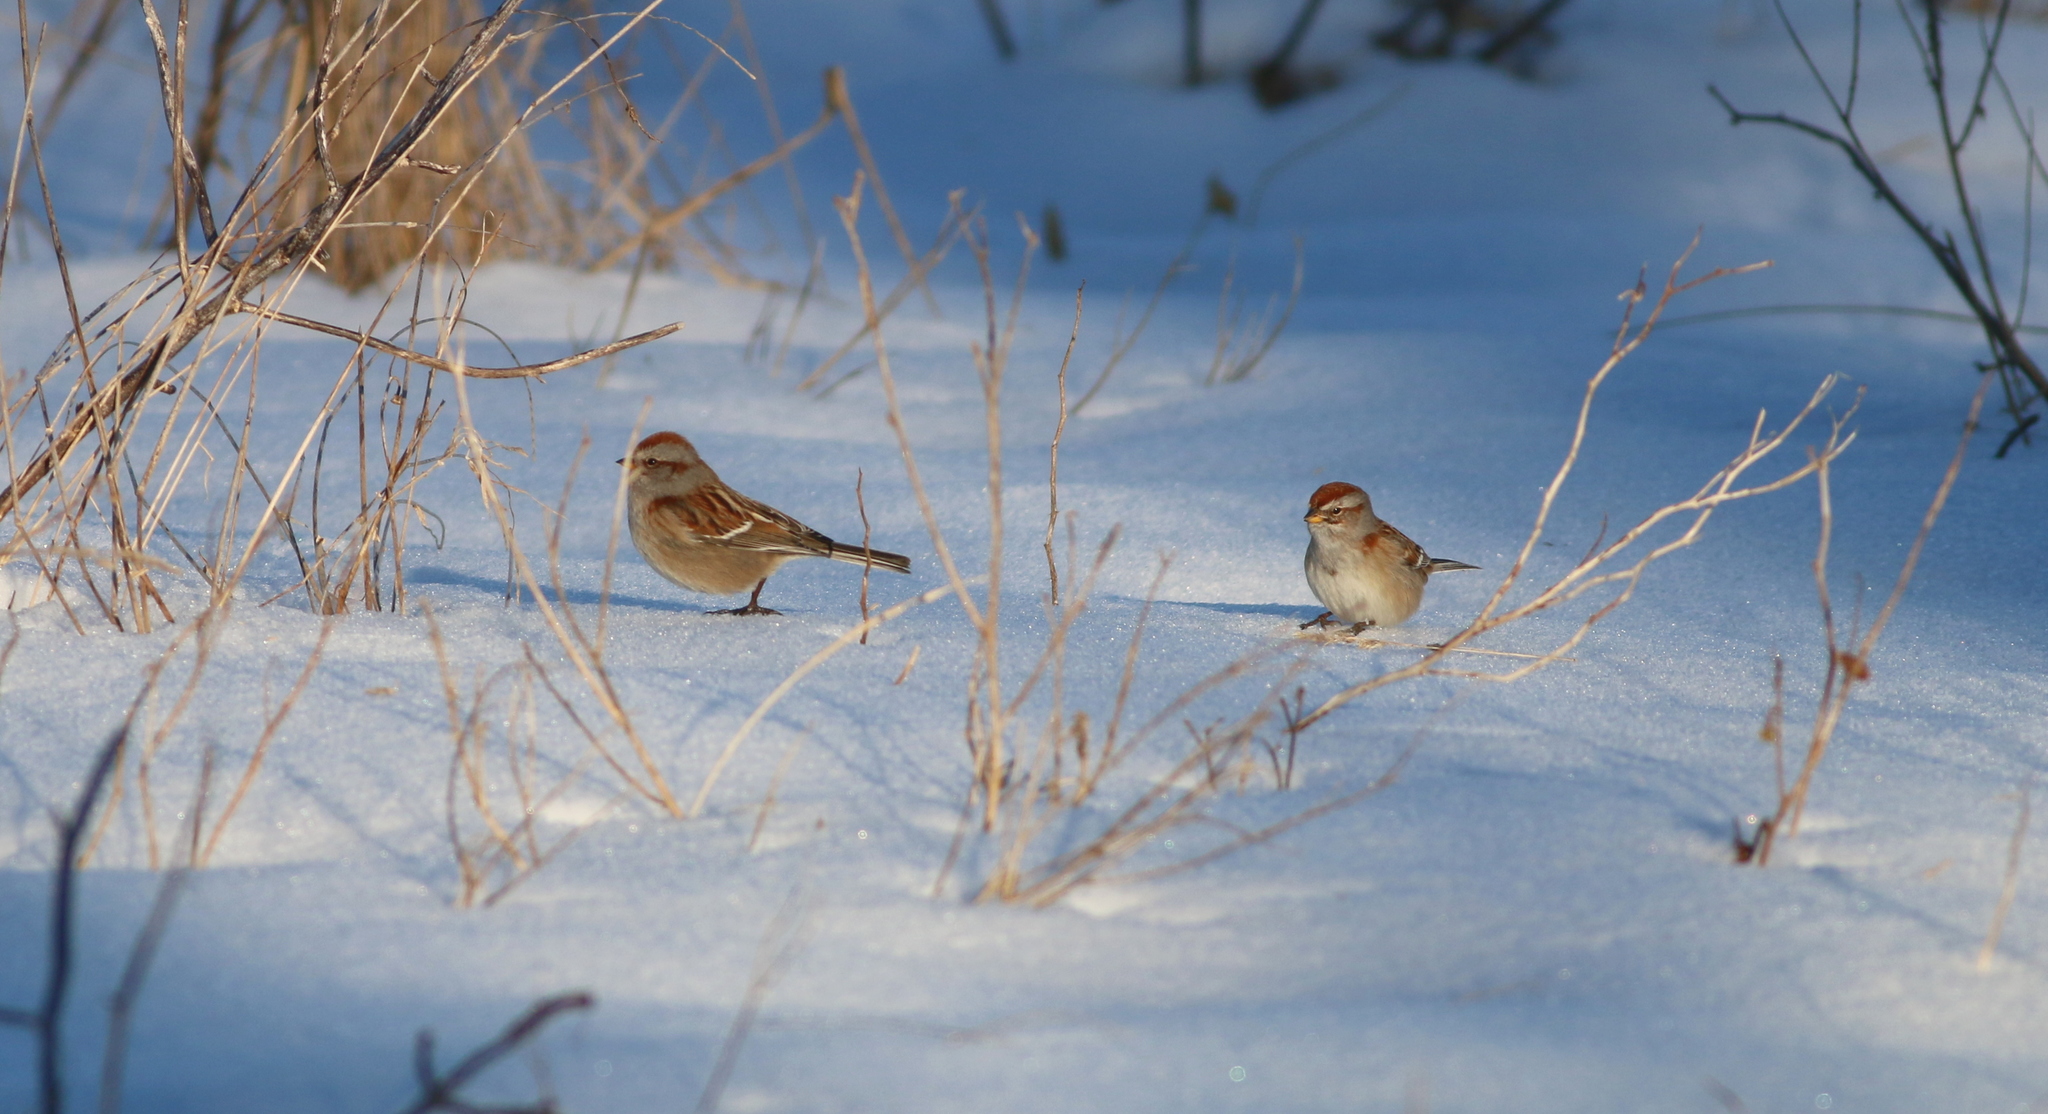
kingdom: Animalia
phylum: Chordata
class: Aves
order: Passeriformes
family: Passerellidae
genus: Spizelloides
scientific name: Spizelloides arborea
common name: American tree sparrow
